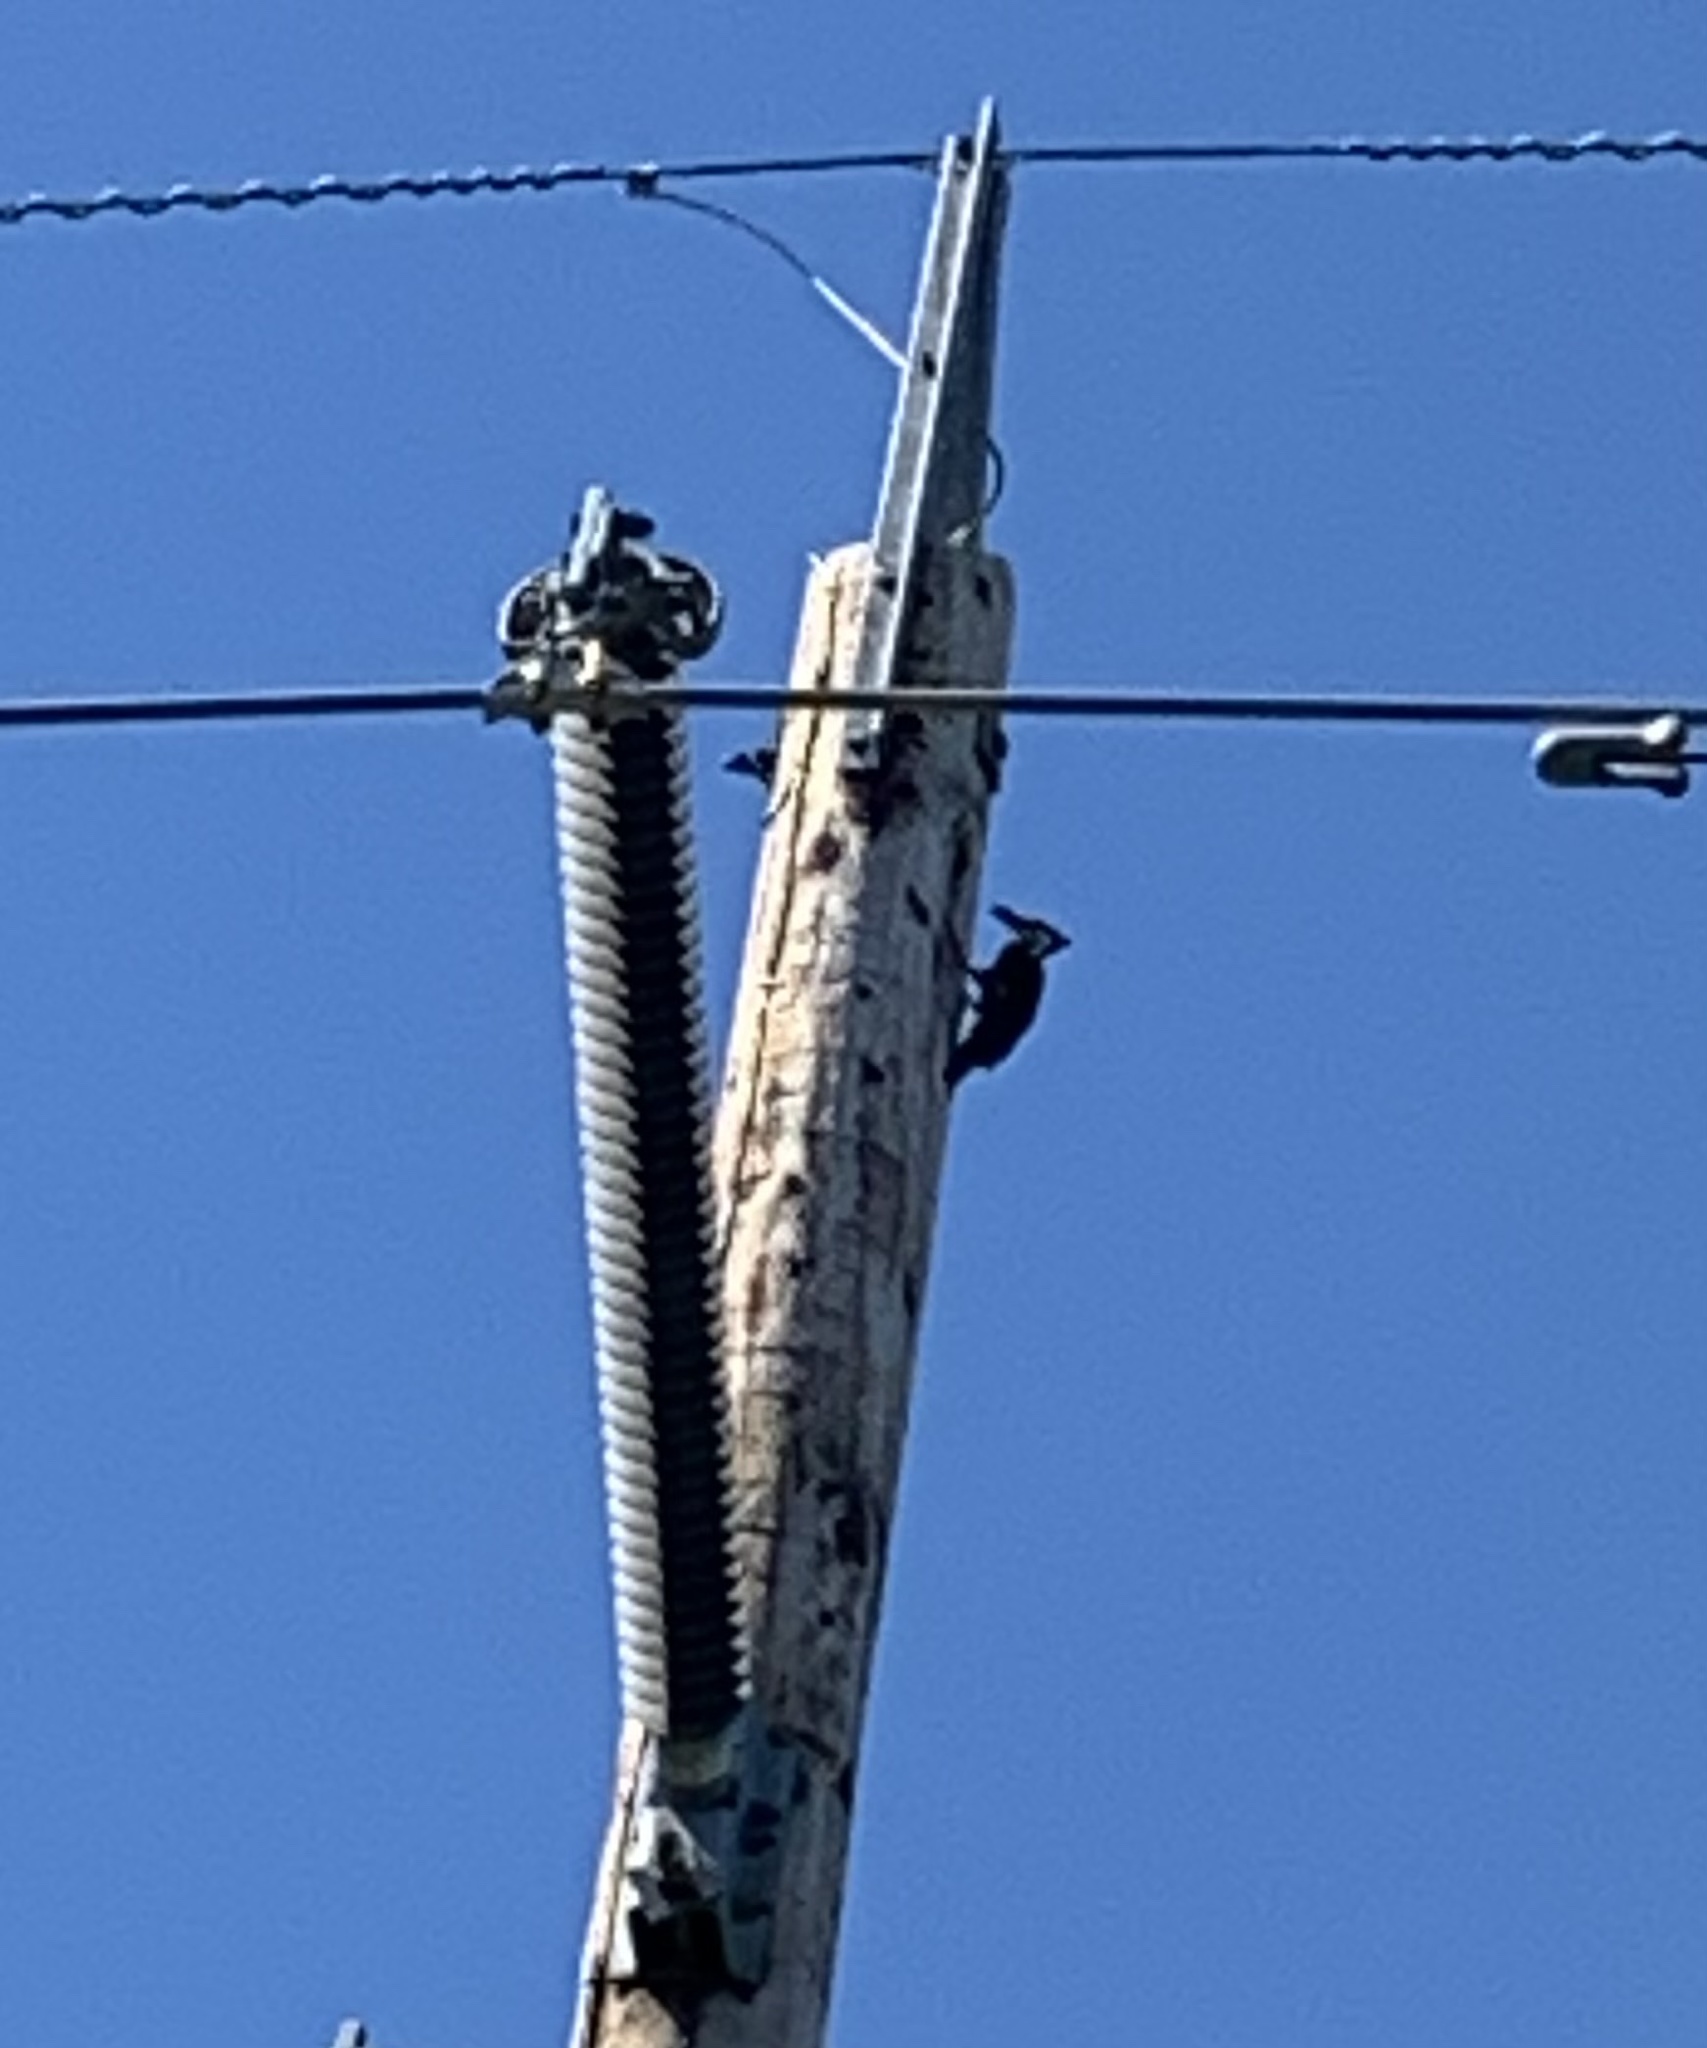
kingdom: Animalia
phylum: Chordata
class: Aves
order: Piciformes
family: Picidae
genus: Dryocopus
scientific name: Dryocopus pileatus
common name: Pileated woodpecker
